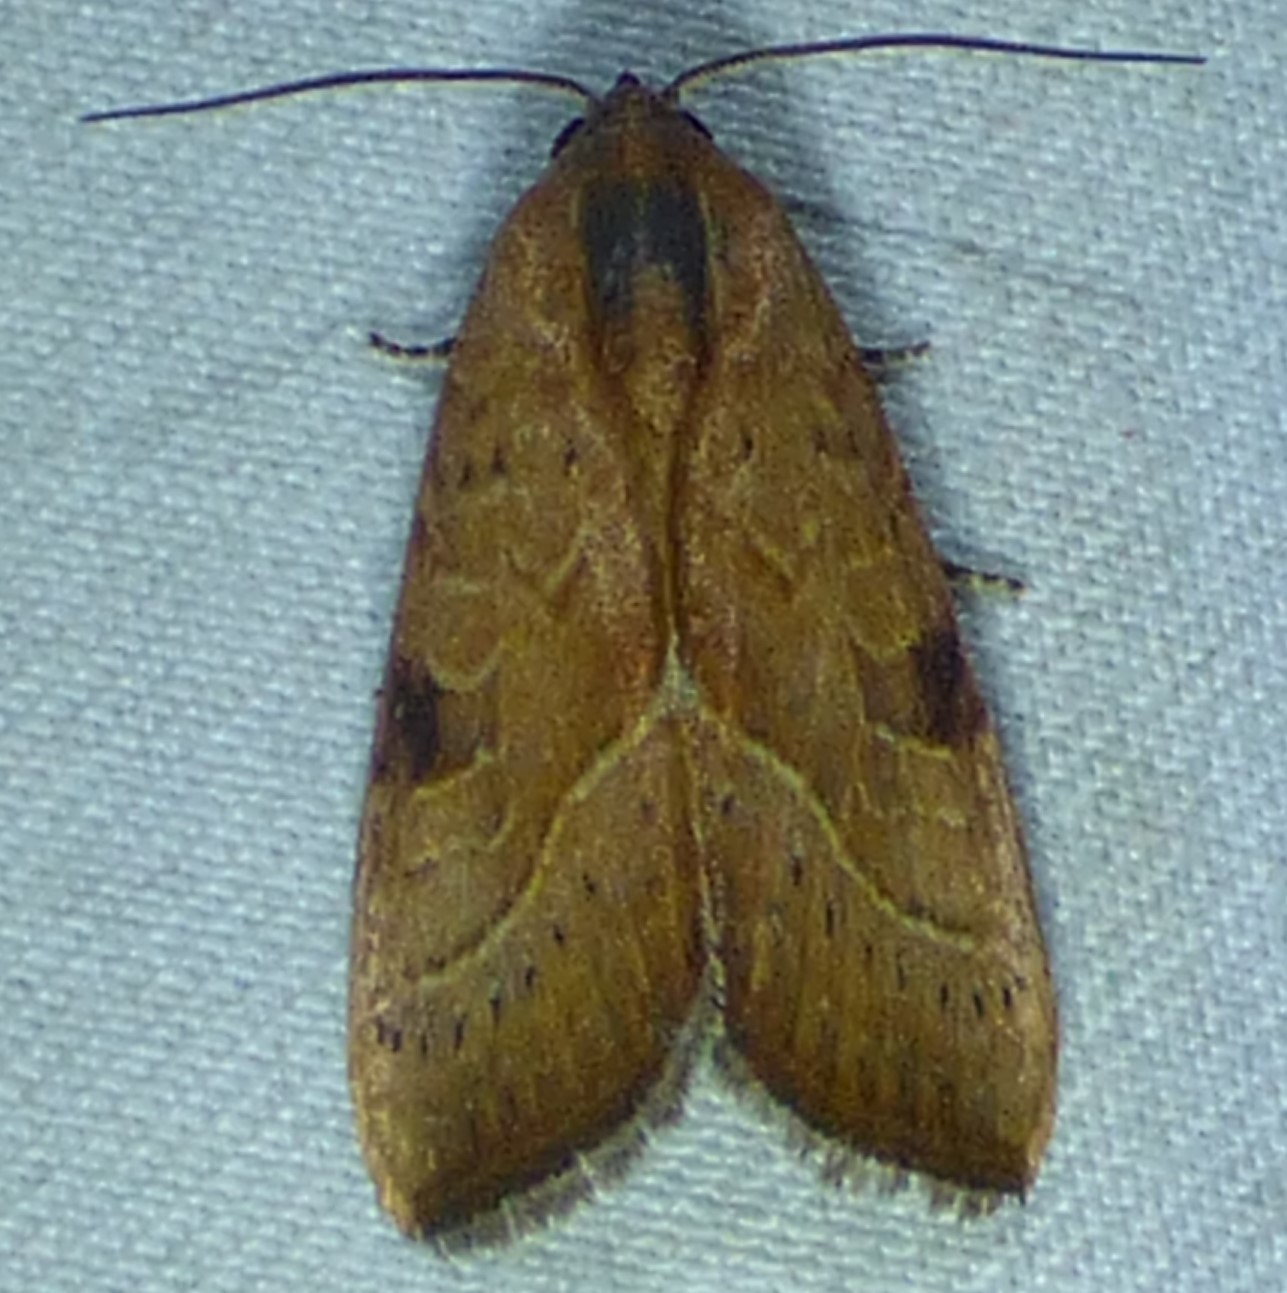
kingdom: Animalia
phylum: Arthropoda
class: Insecta
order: Lepidoptera
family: Noctuidae
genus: Galgula
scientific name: Galgula partita
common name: Wedgeling
